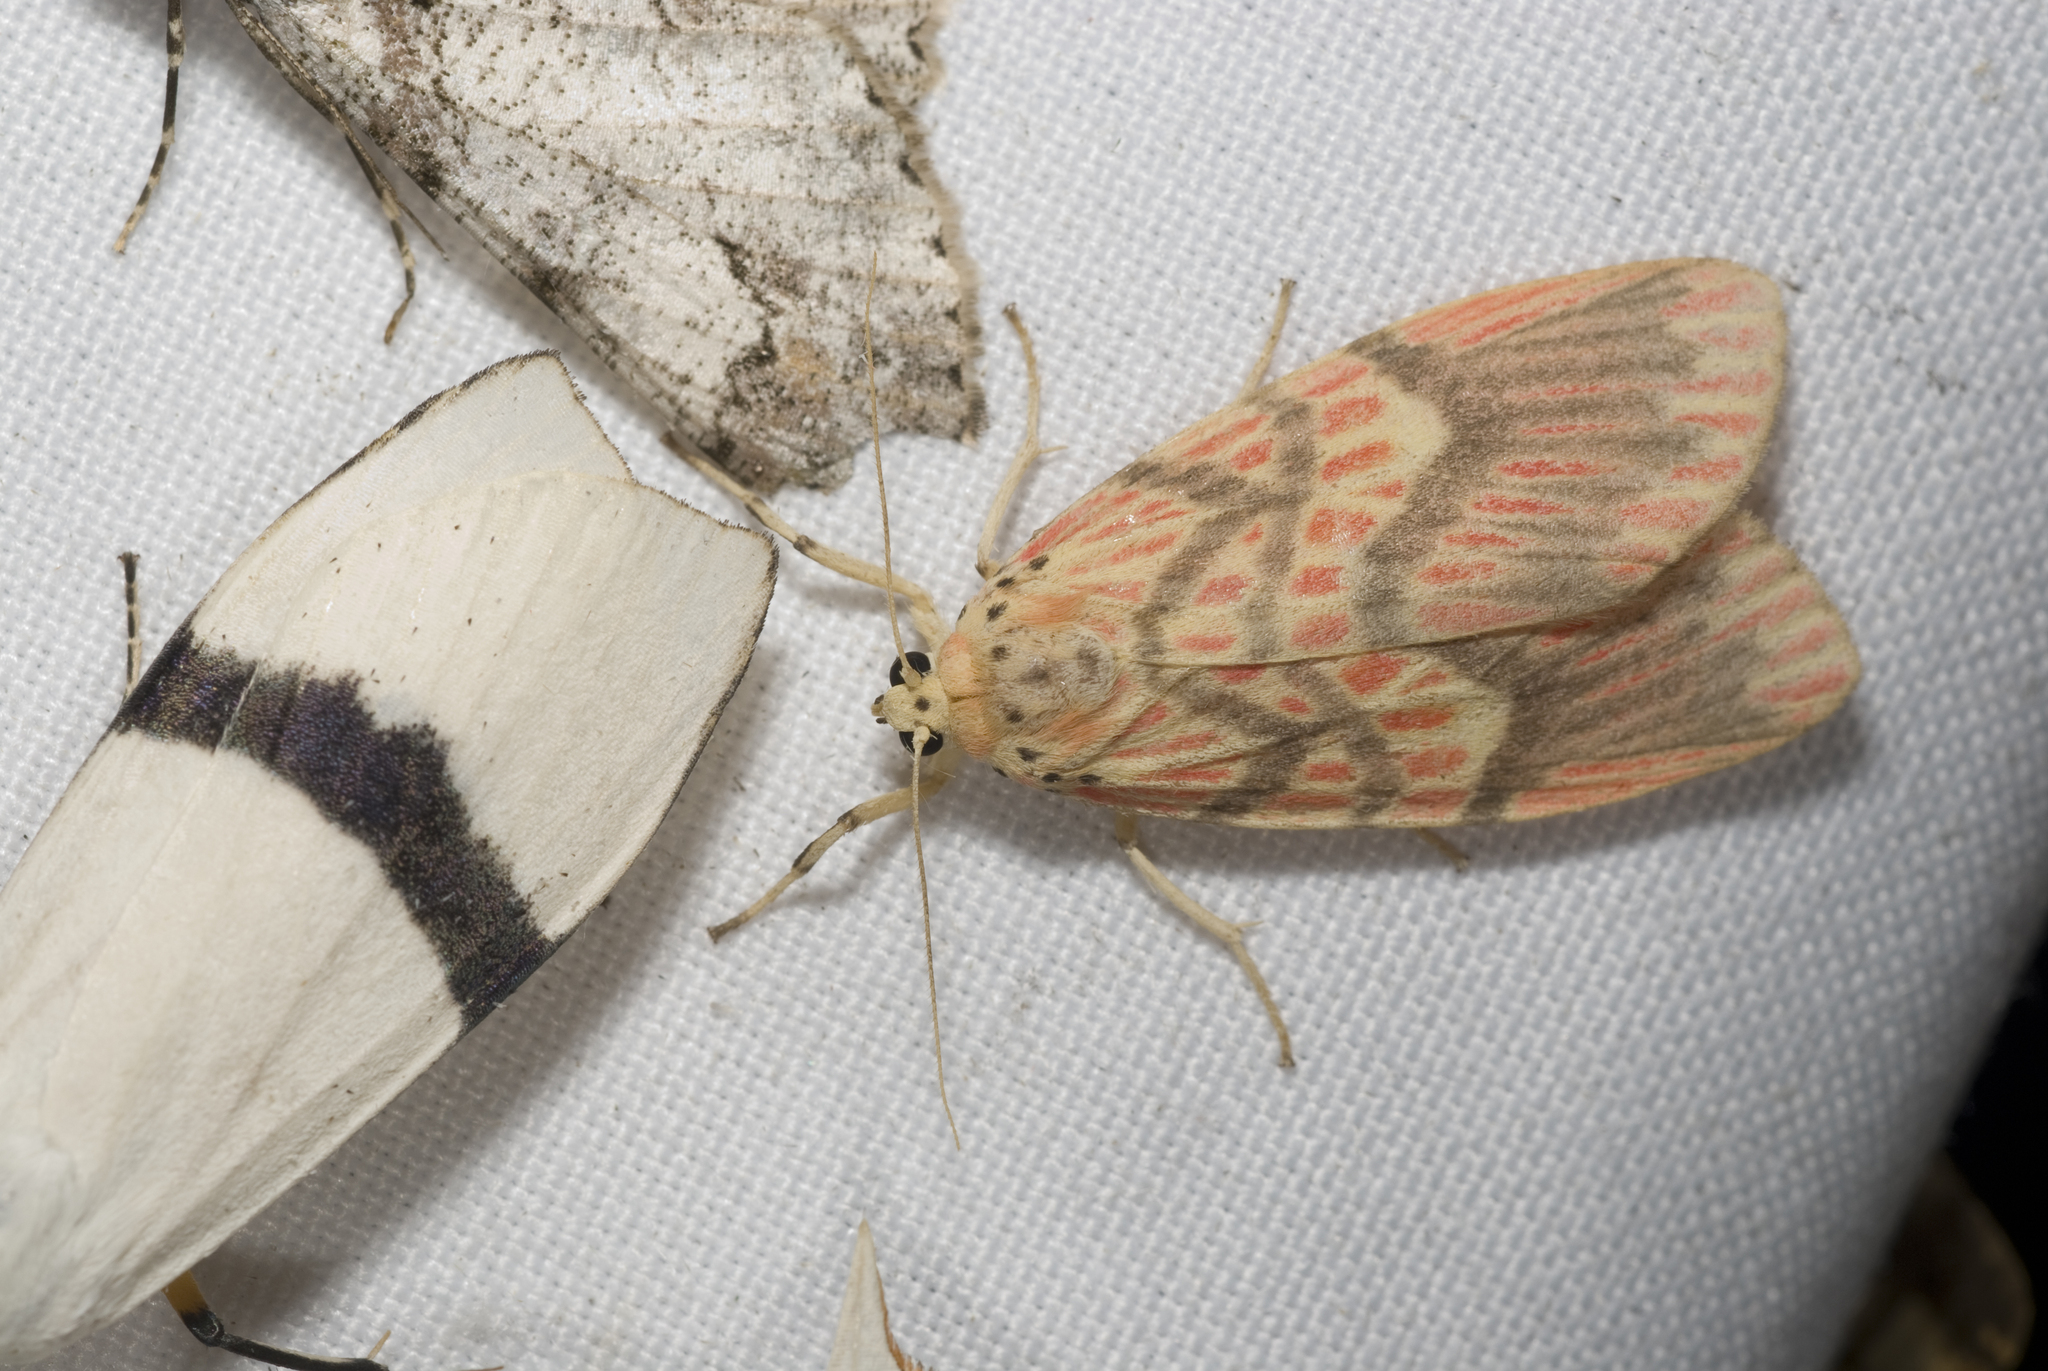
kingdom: Animalia
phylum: Arthropoda
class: Insecta
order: Lepidoptera
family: Erebidae
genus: Barsine
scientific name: Barsine fuscozonata
